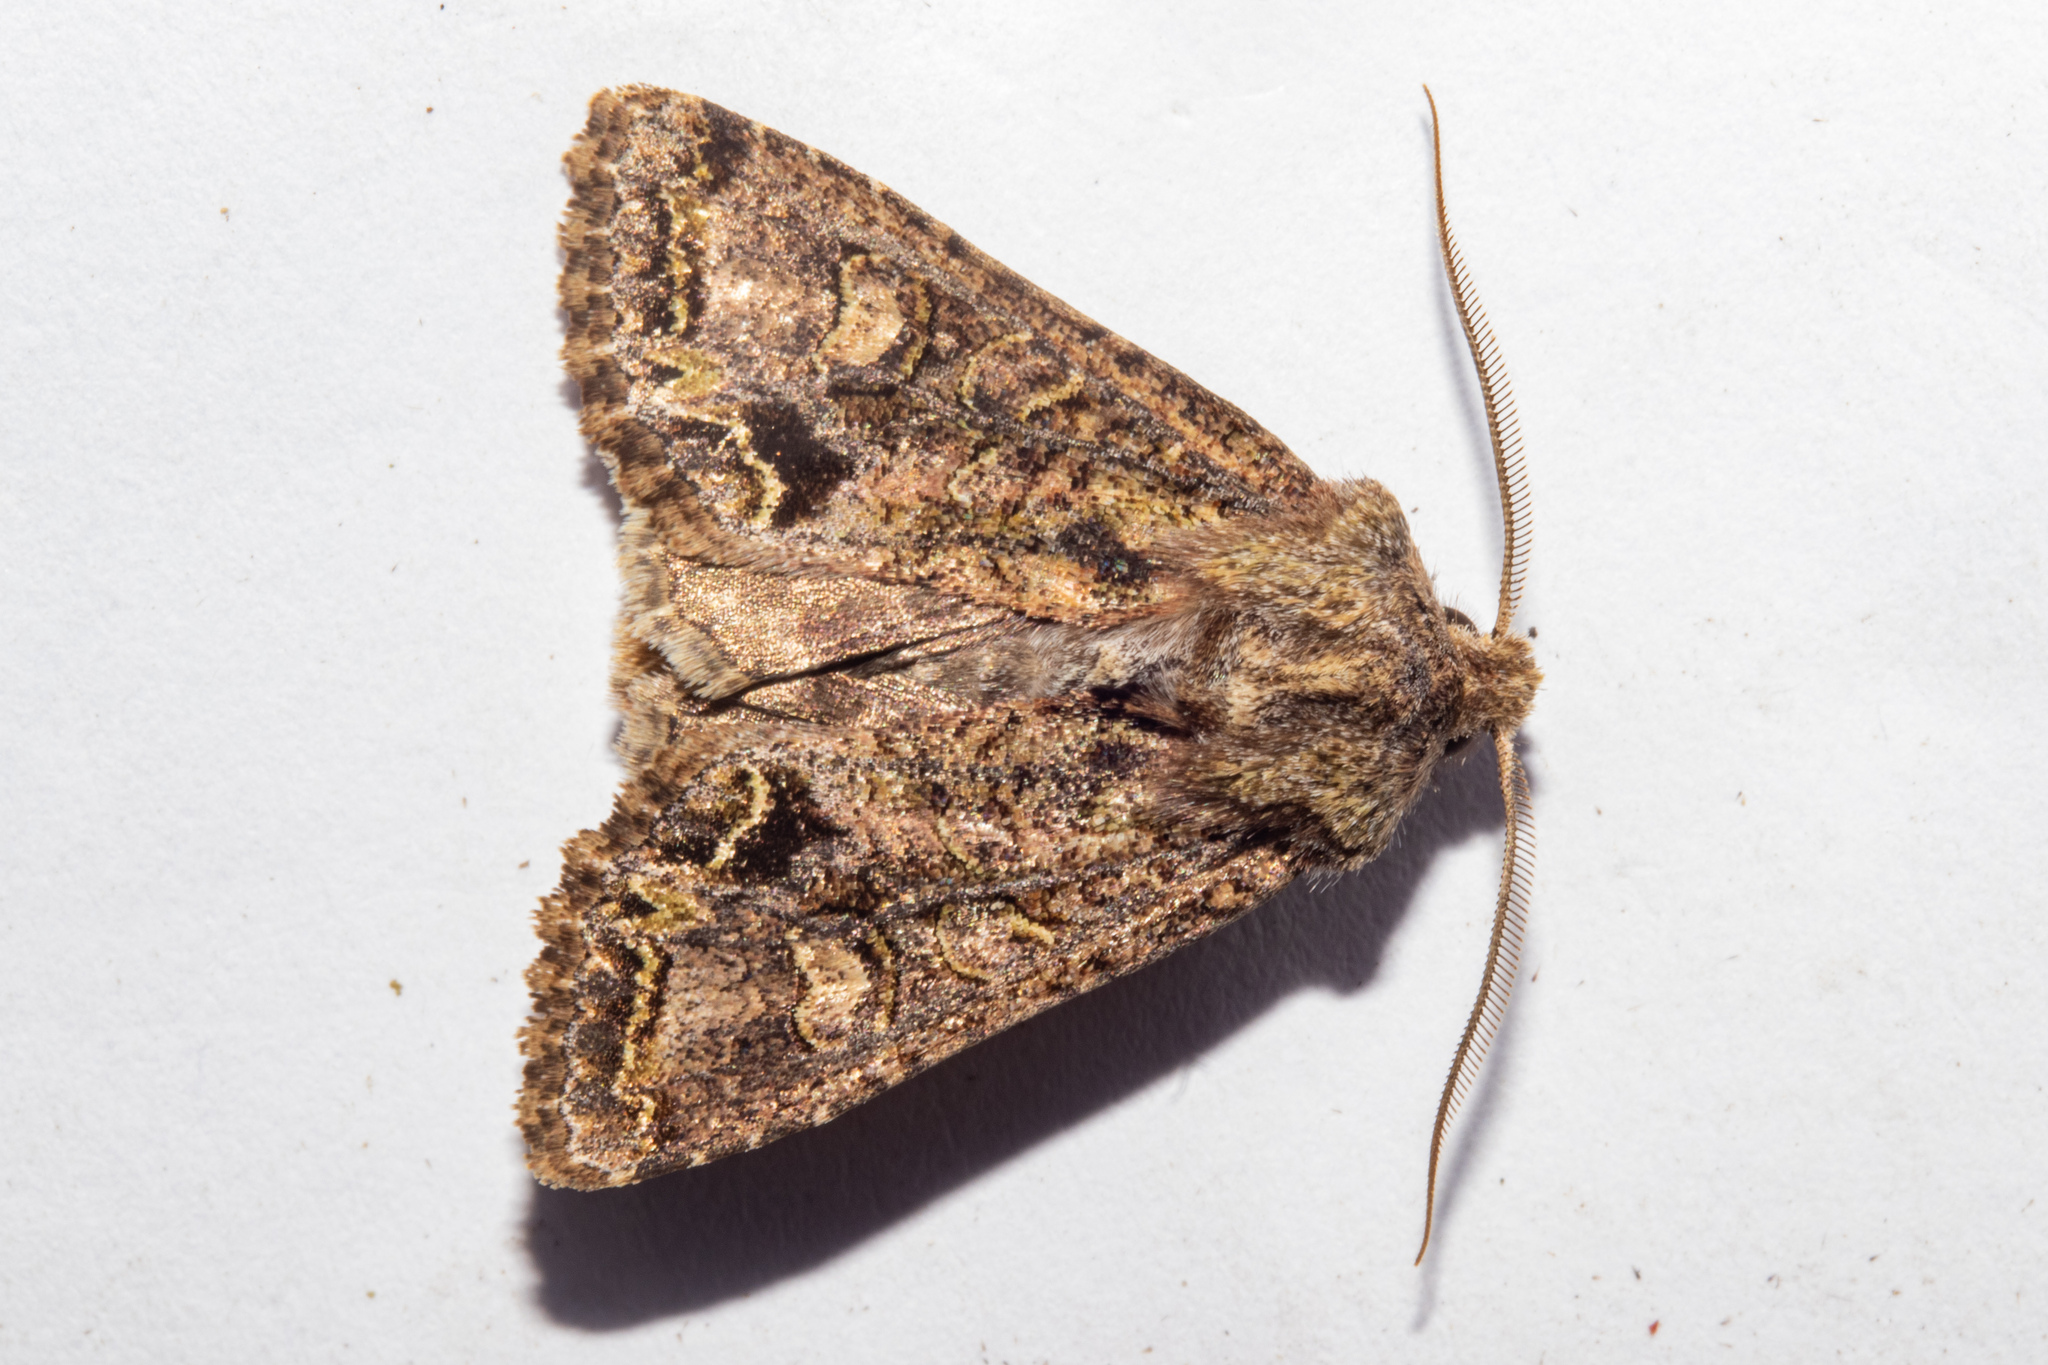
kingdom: Animalia
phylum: Arthropoda
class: Insecta
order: Lepidoptera
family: Noctuidae
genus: Ichneutica
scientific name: Ichneutica skelloni
